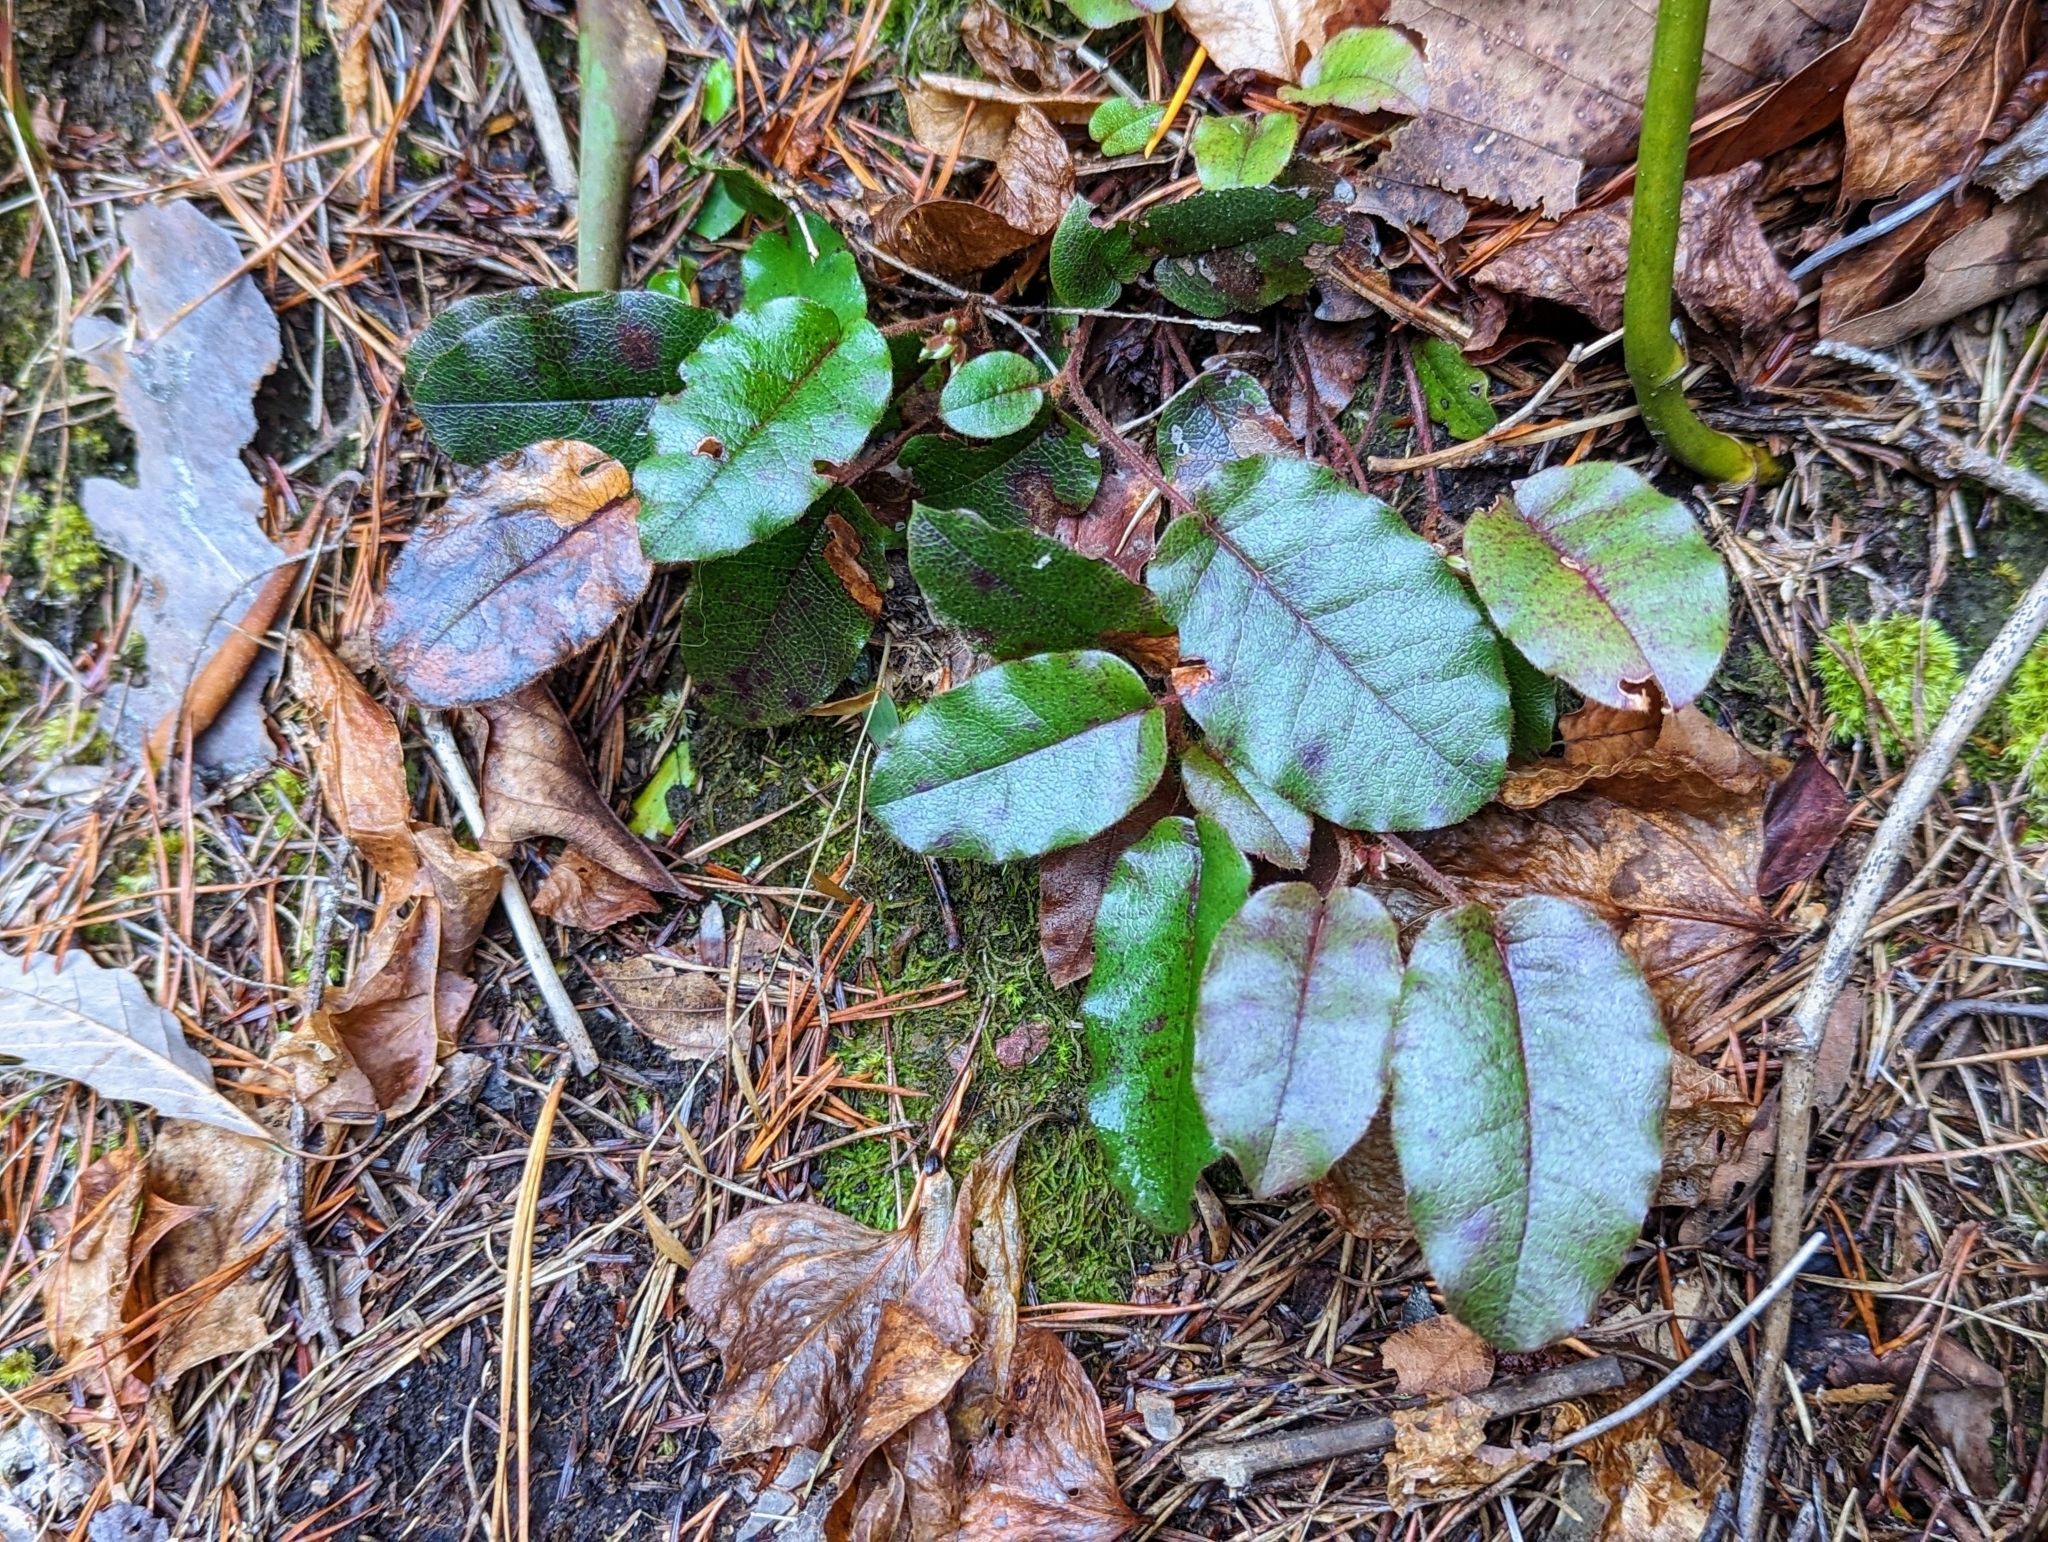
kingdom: Plantae
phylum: Tracheophyta
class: Magnoliopsida
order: Ericales
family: Ericaceae
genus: Epigaea
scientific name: Epigaea repens
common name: Gravelroot
